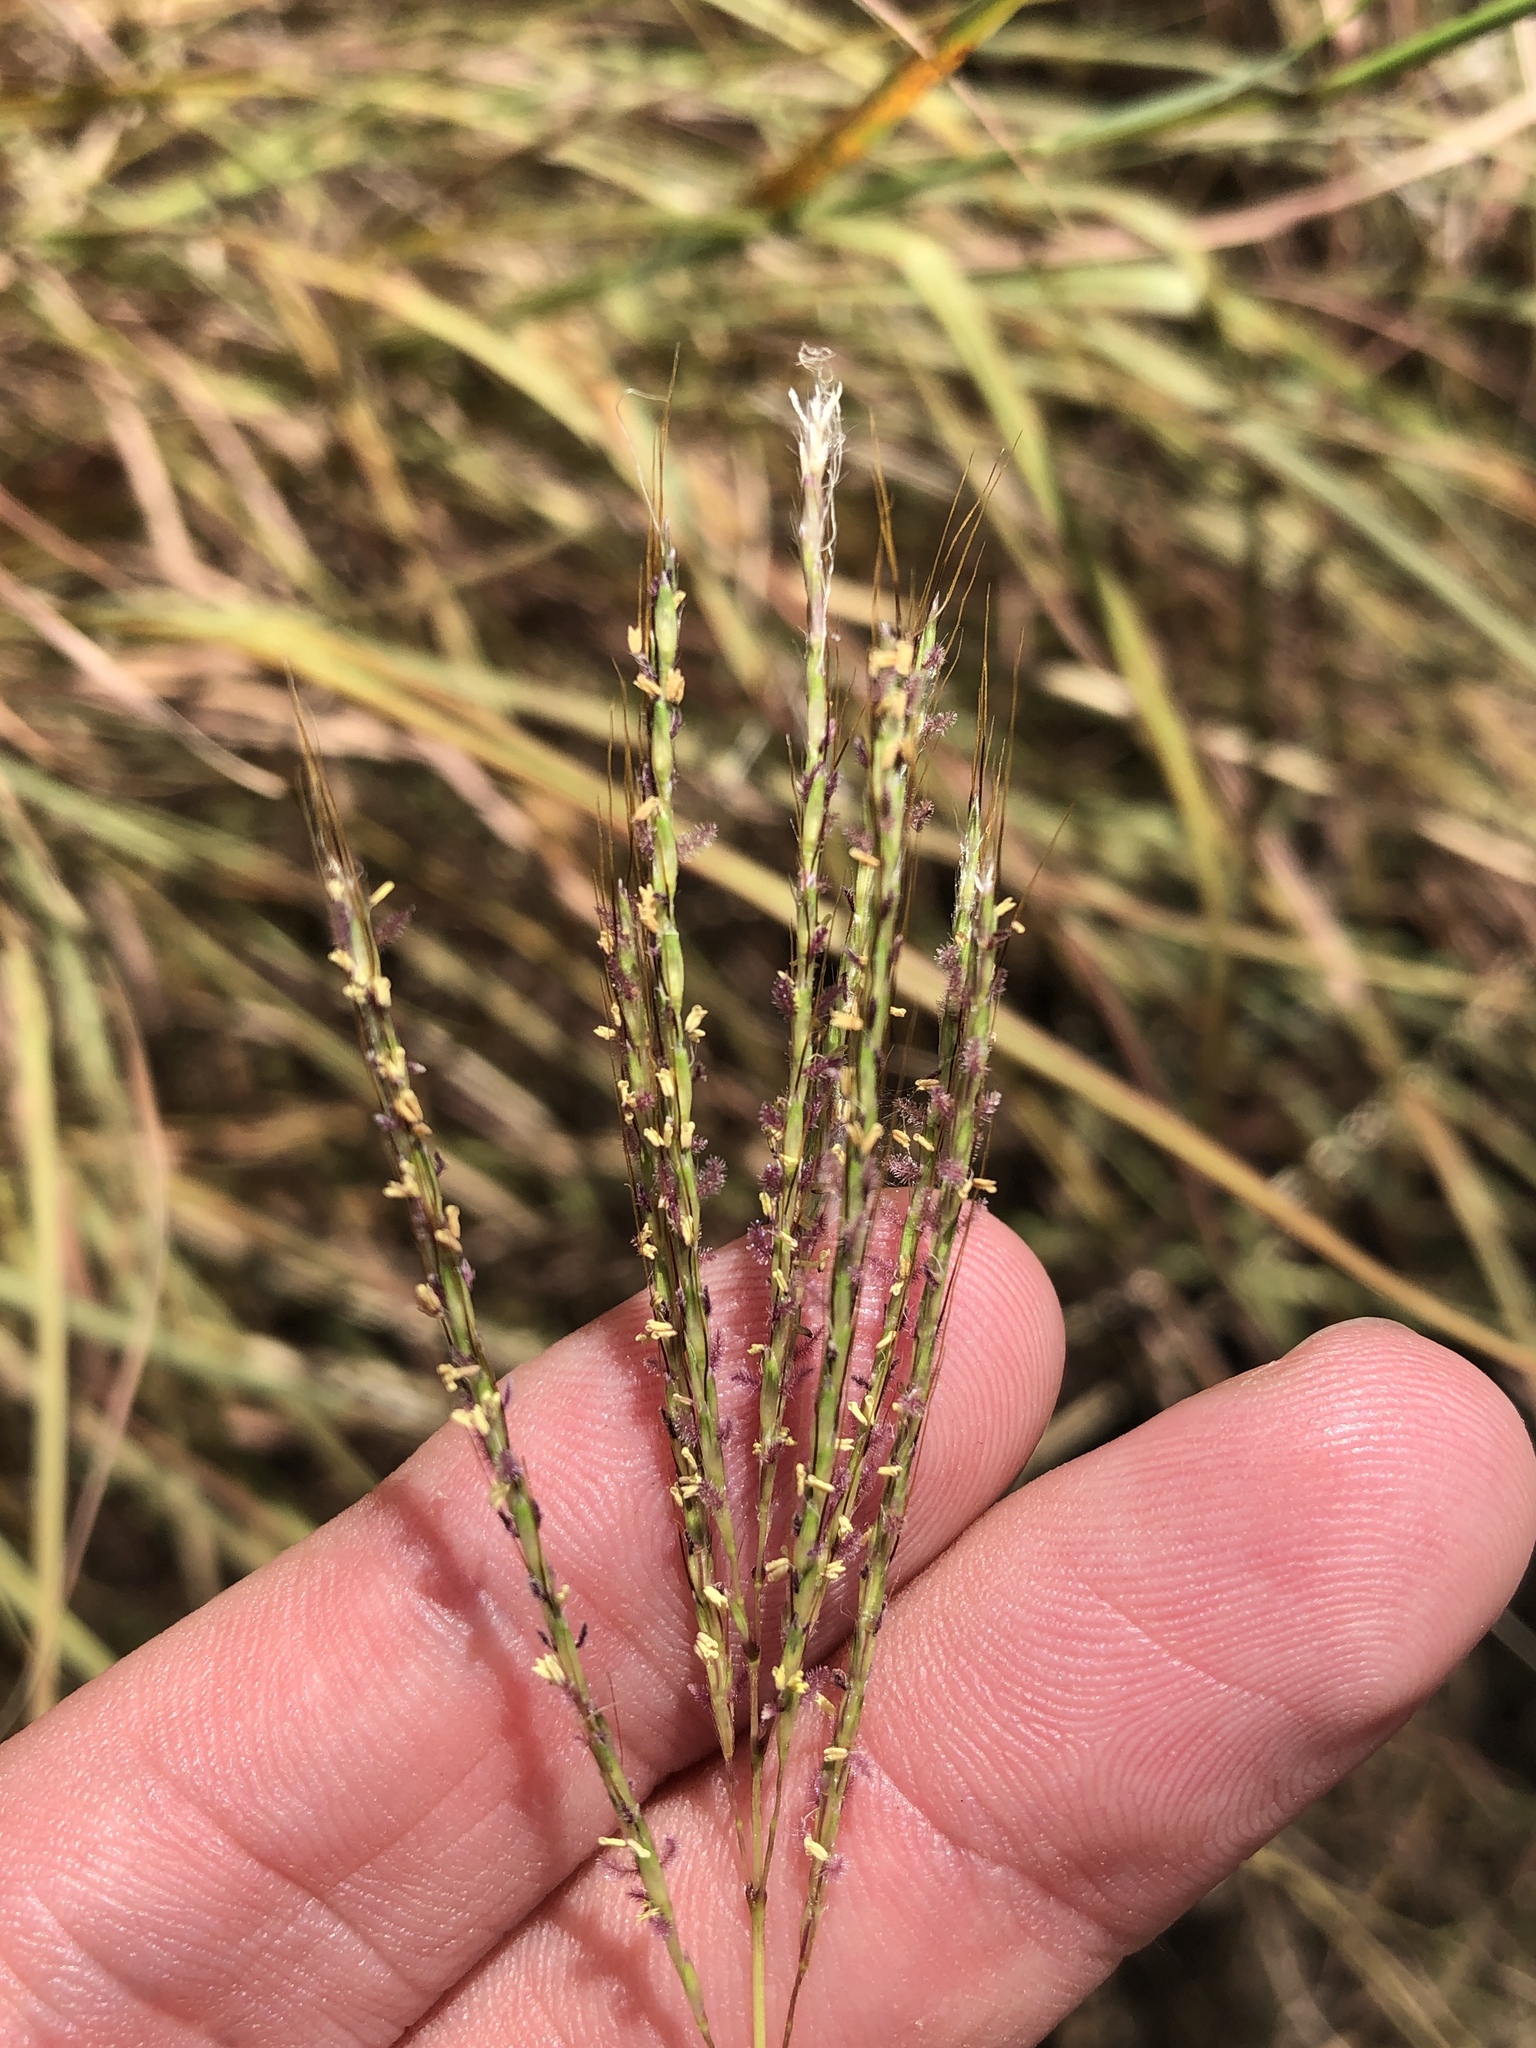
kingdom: Plantae
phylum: Tracheophyta
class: Liliopsida
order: Poales
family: Poaceae
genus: Bothriochloa
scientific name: Bothriochloa ischaemum
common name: Yellow bluestem
